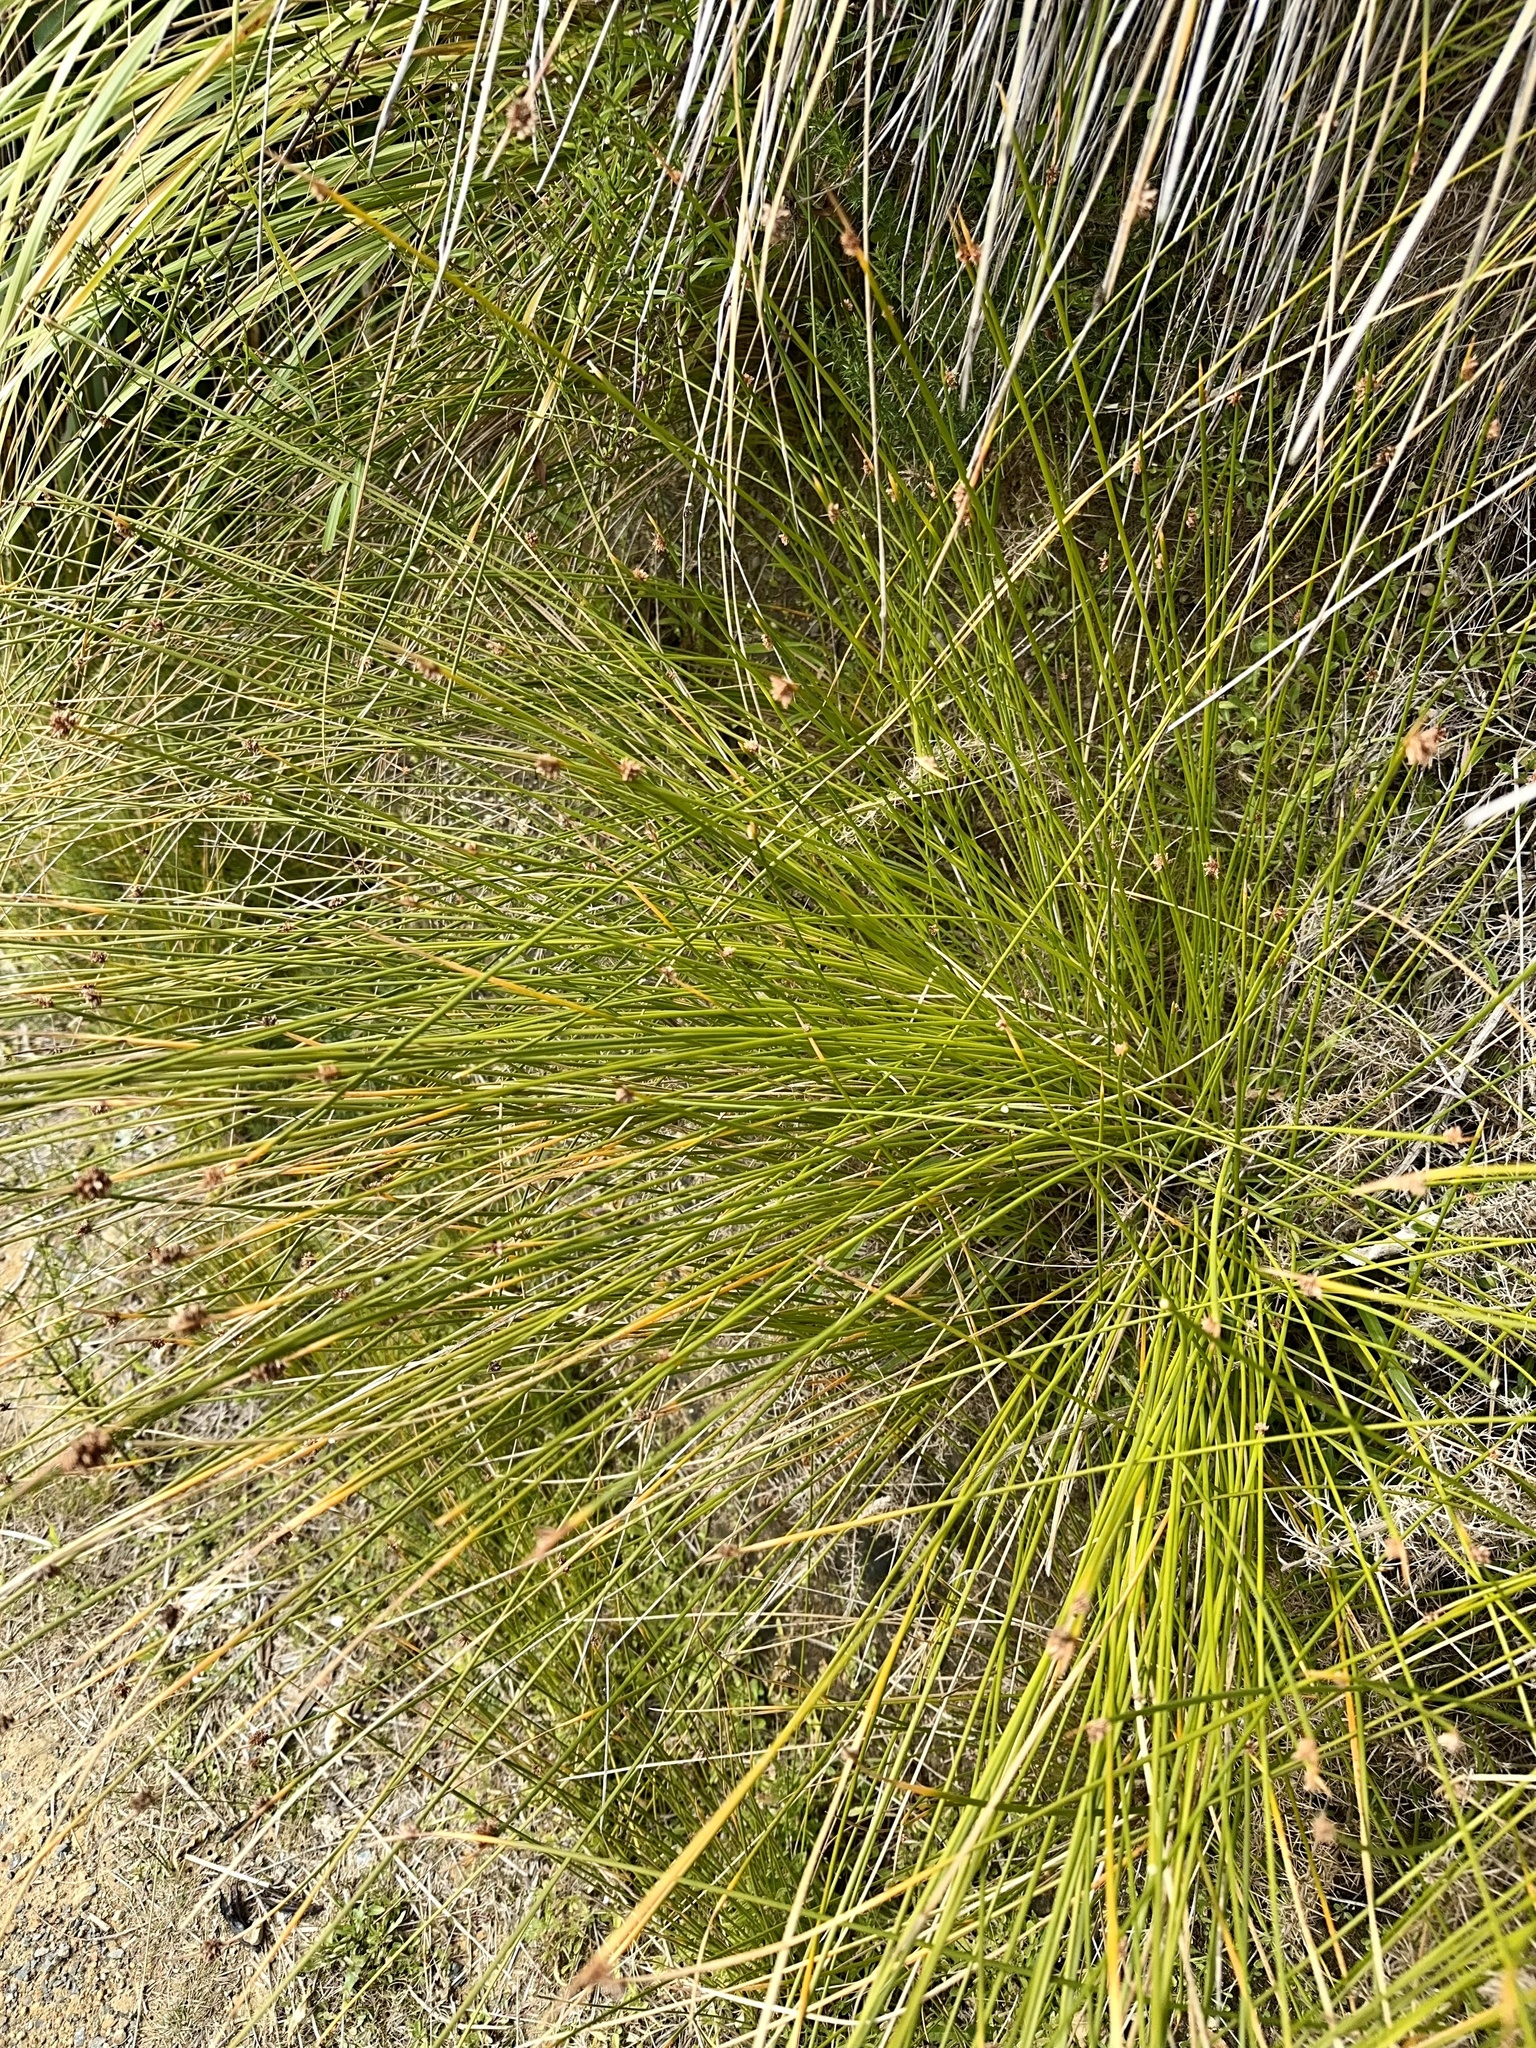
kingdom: Plantae
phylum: Tracheophyta
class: Liliopsida
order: Poales
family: Cyperaceae
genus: Ficinia
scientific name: Ficinia nodosa
